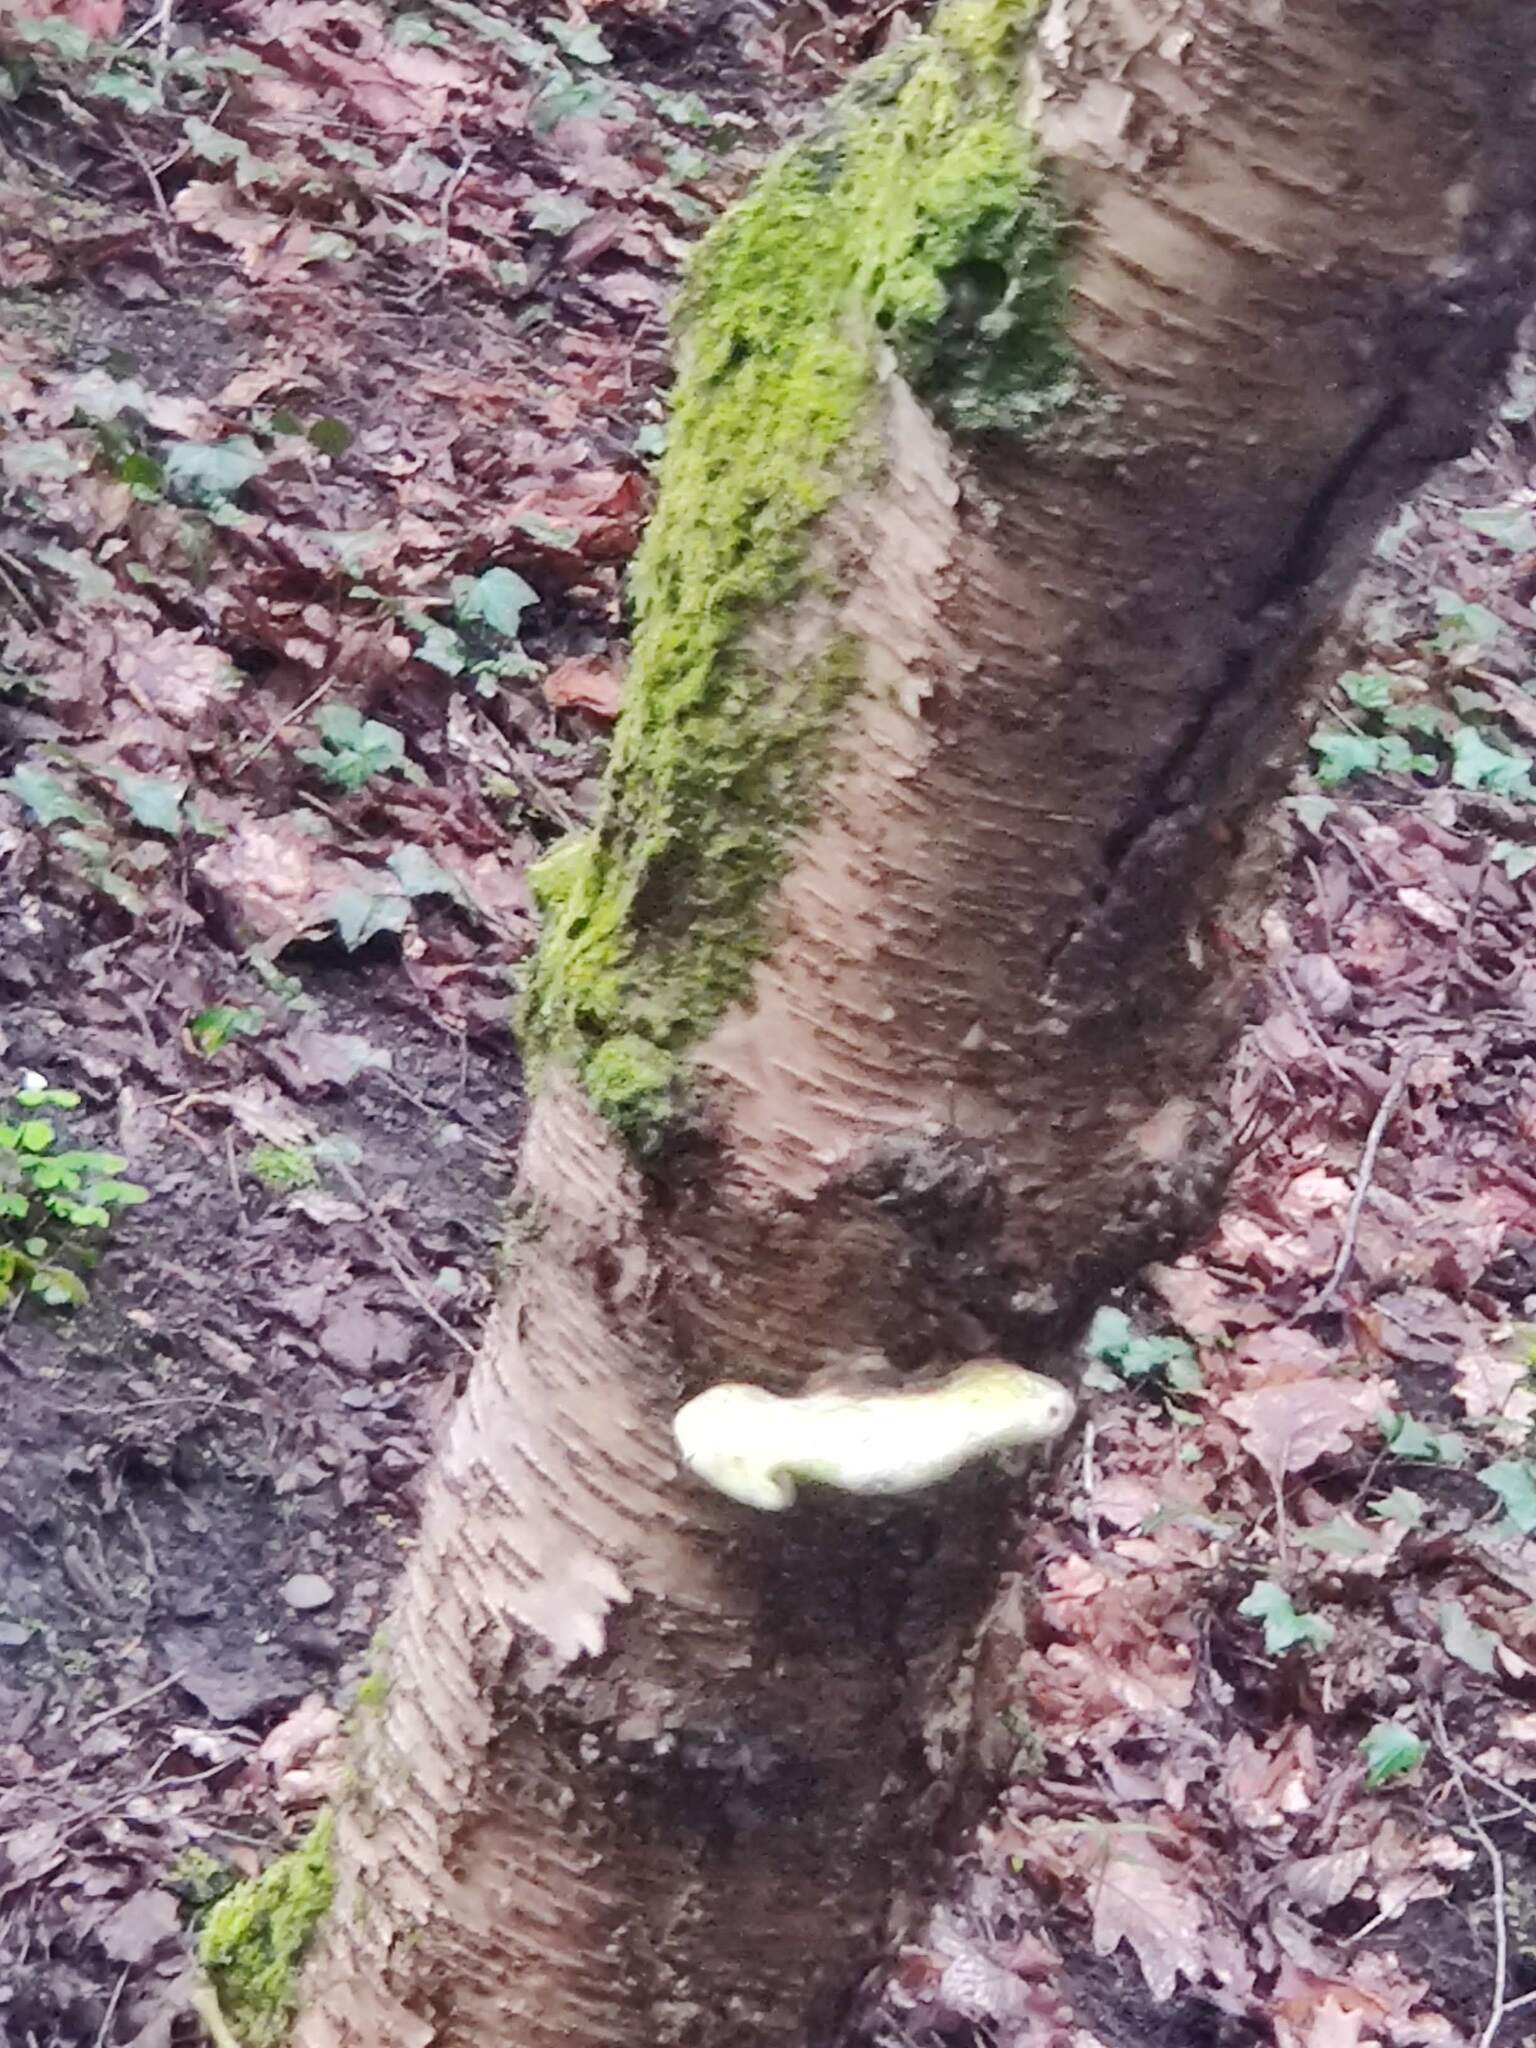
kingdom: Fungi
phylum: Basidiomycota
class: Agaricomycetes
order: Polyporales
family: Fomitopsidaceae
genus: Fomitopsis
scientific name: Fomitopsis betulina
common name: Birch polypore
